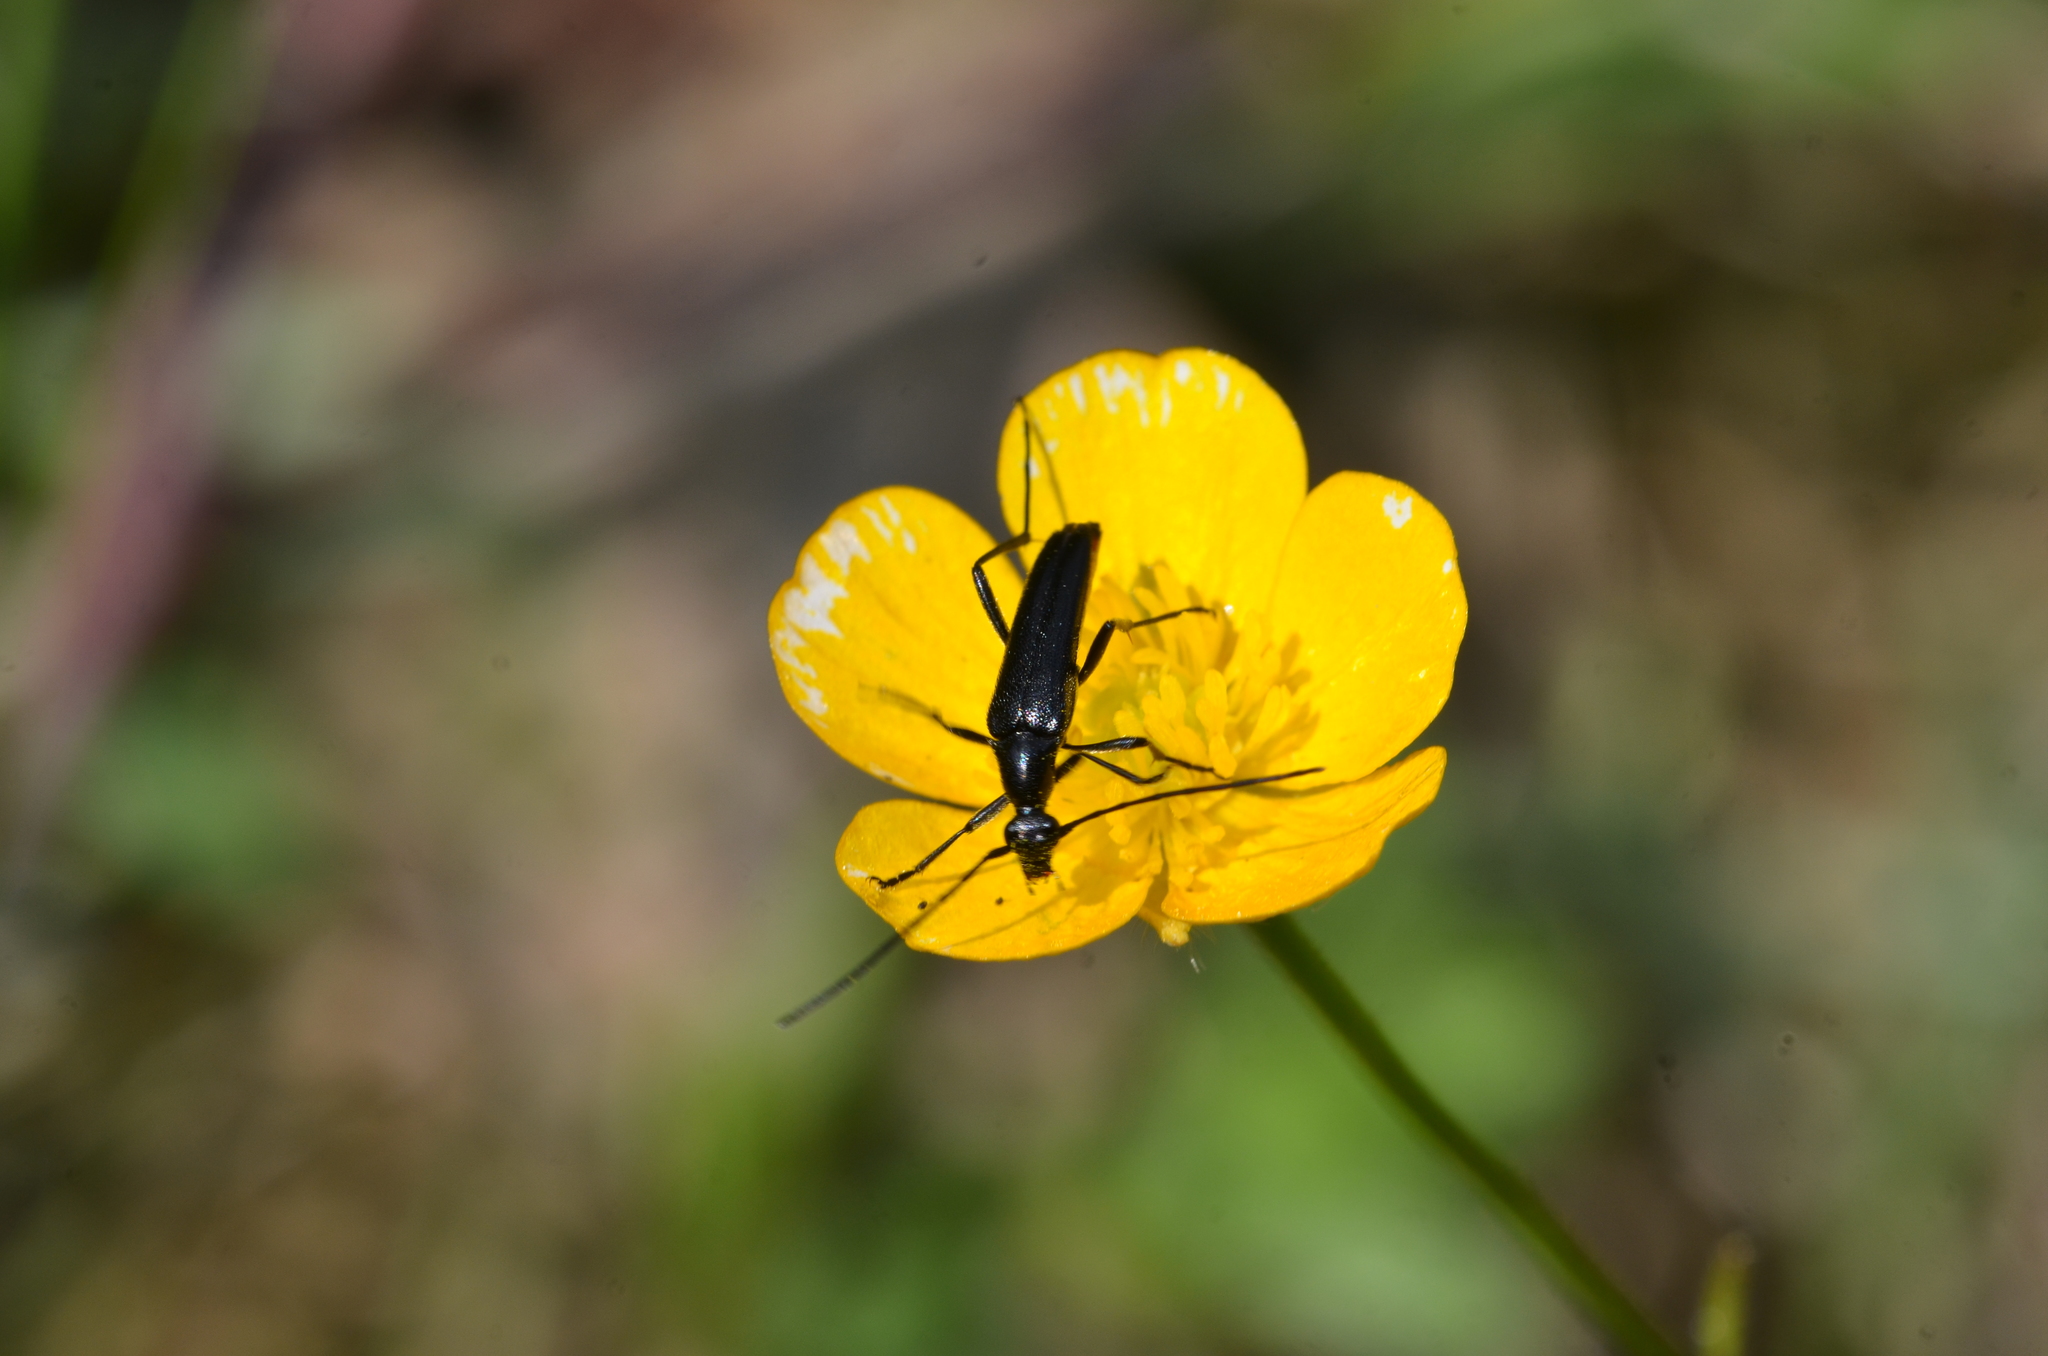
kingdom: Animalia
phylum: Arthropoda
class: Insecta
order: Coleoptera
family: Cerambycidae
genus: Stenurella
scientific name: Stenurella nigra
